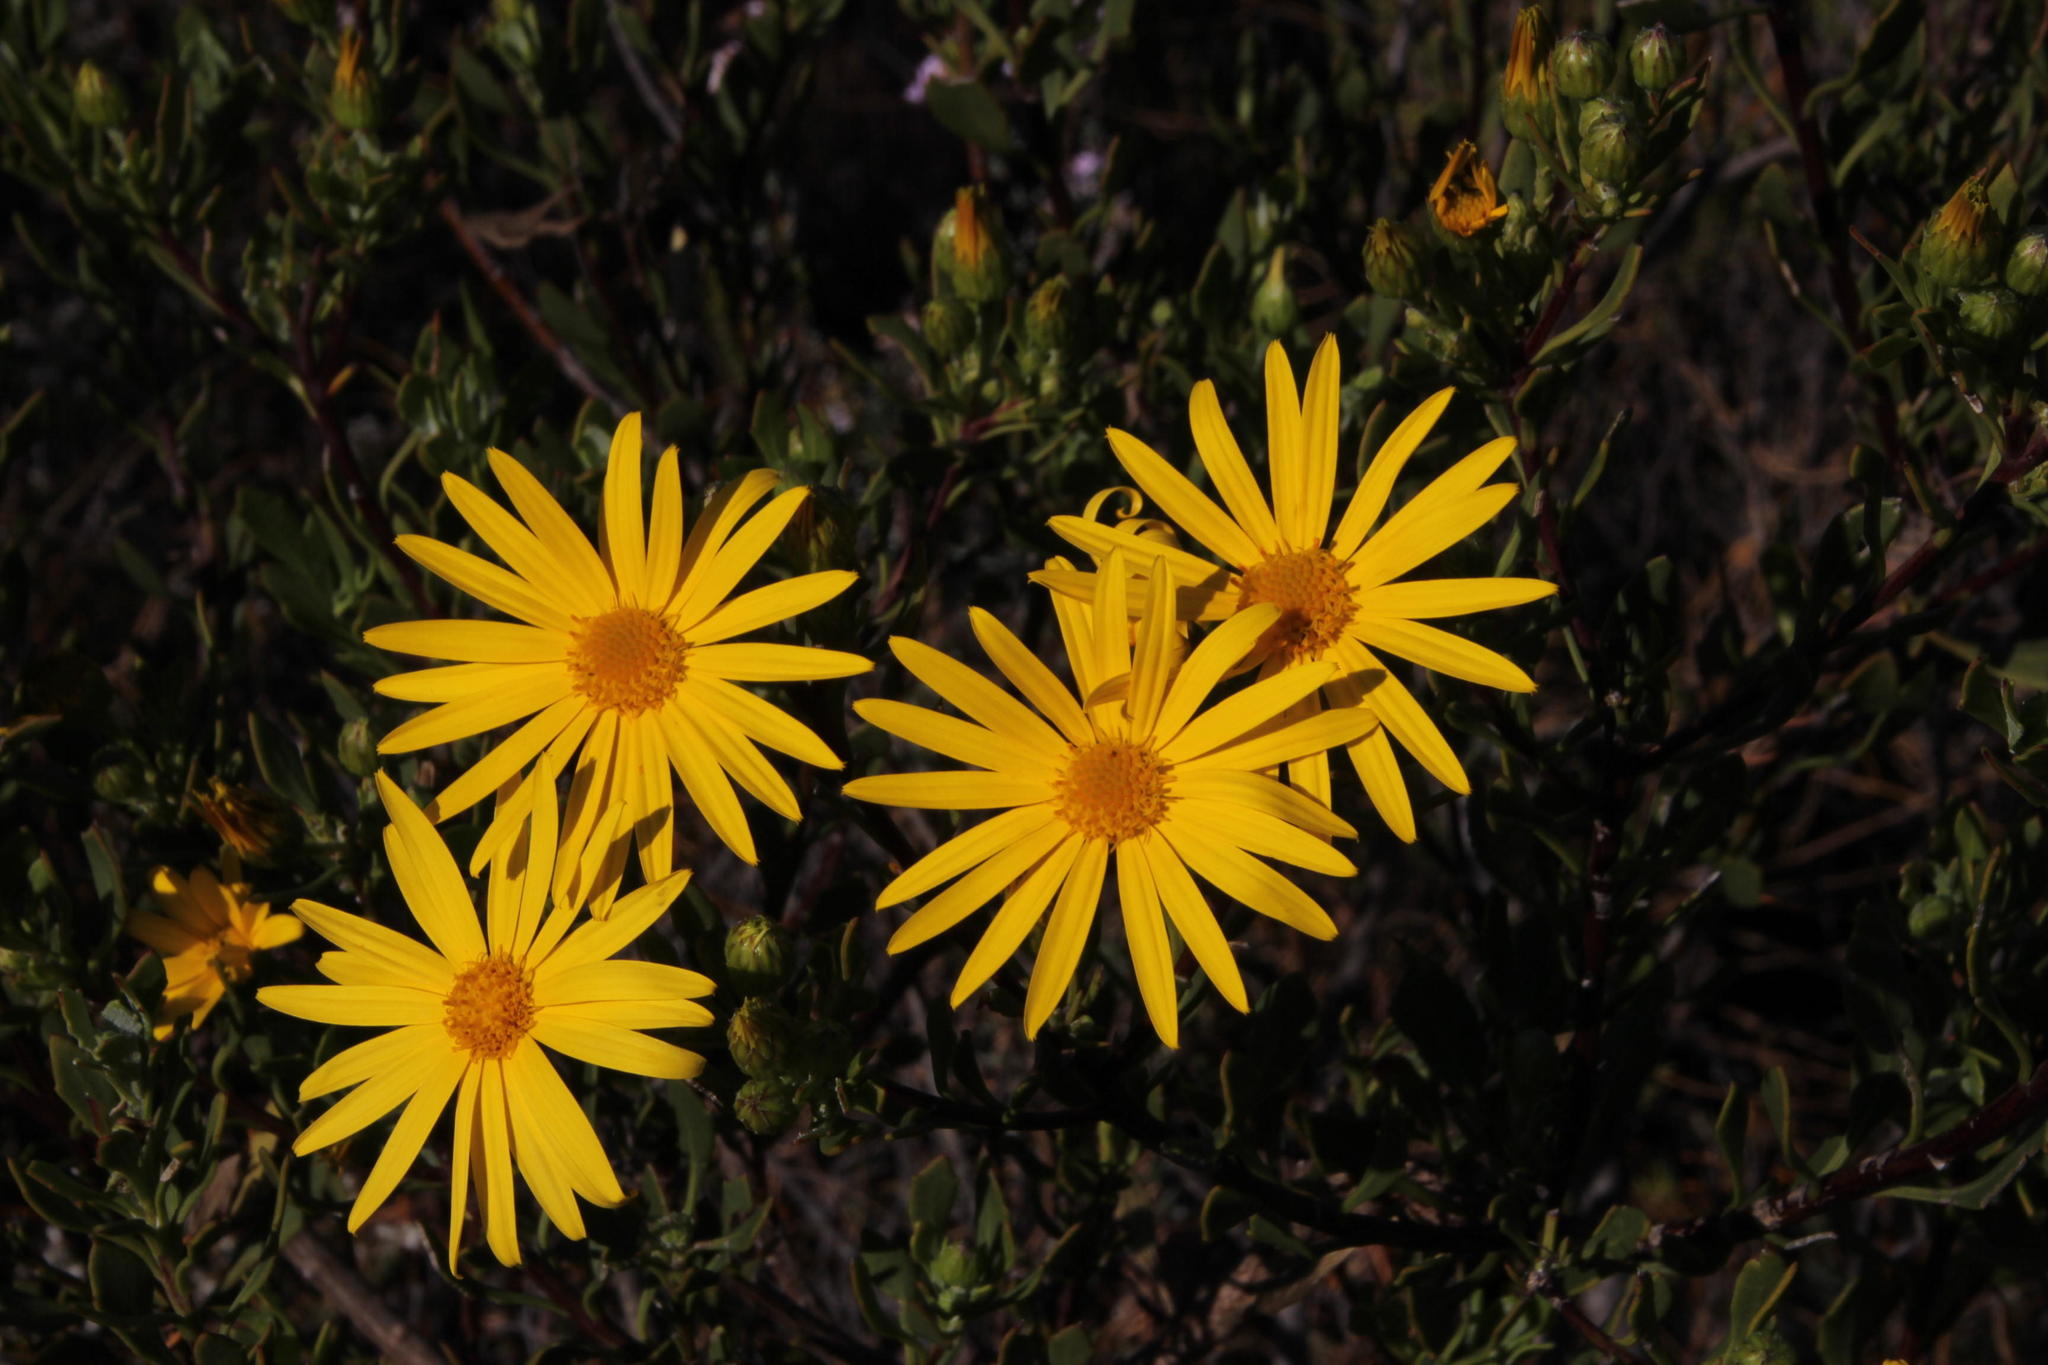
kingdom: Plantae
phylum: Tracheophyta
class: Magnoliopsida
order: Asterales
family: Asteraceae
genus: Osteospermum
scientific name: Osteospermum moniliferum
